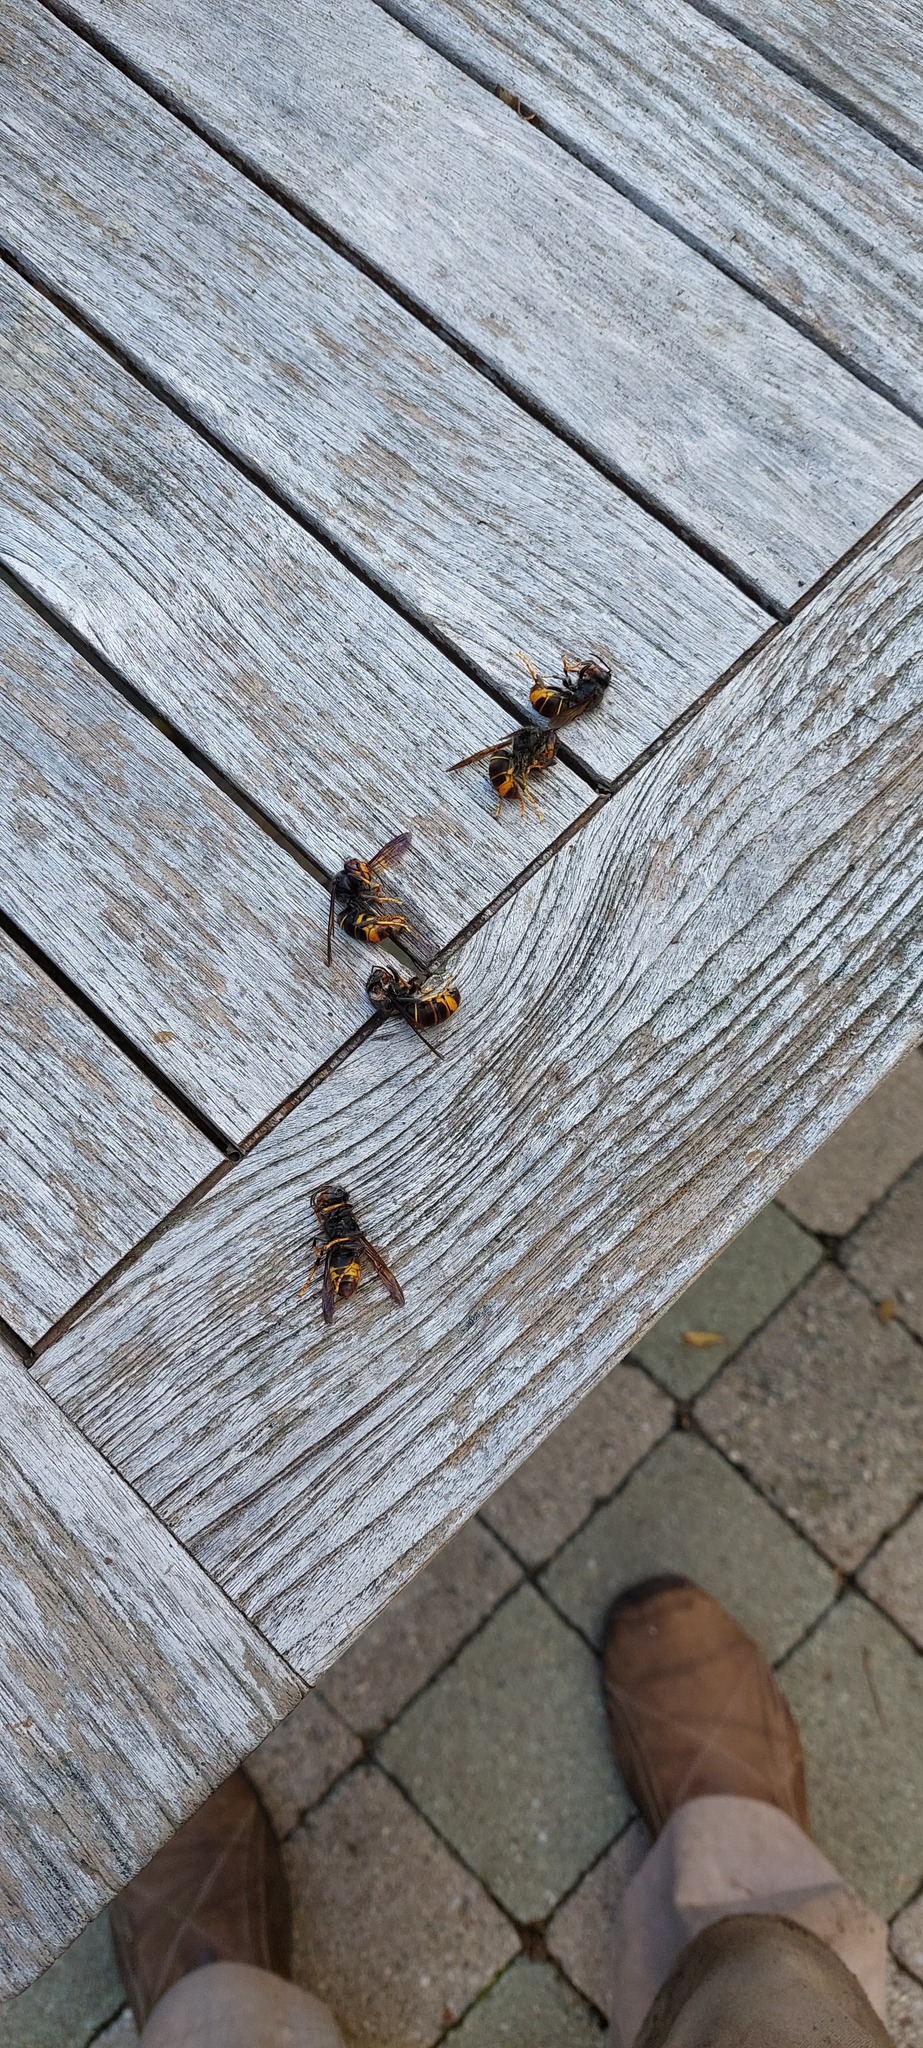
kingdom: Animalia
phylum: Arthropoda
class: Insecta
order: Hymenoptera
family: Vespidae
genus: Vespa
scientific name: Vespa velutina
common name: Asian hornet
